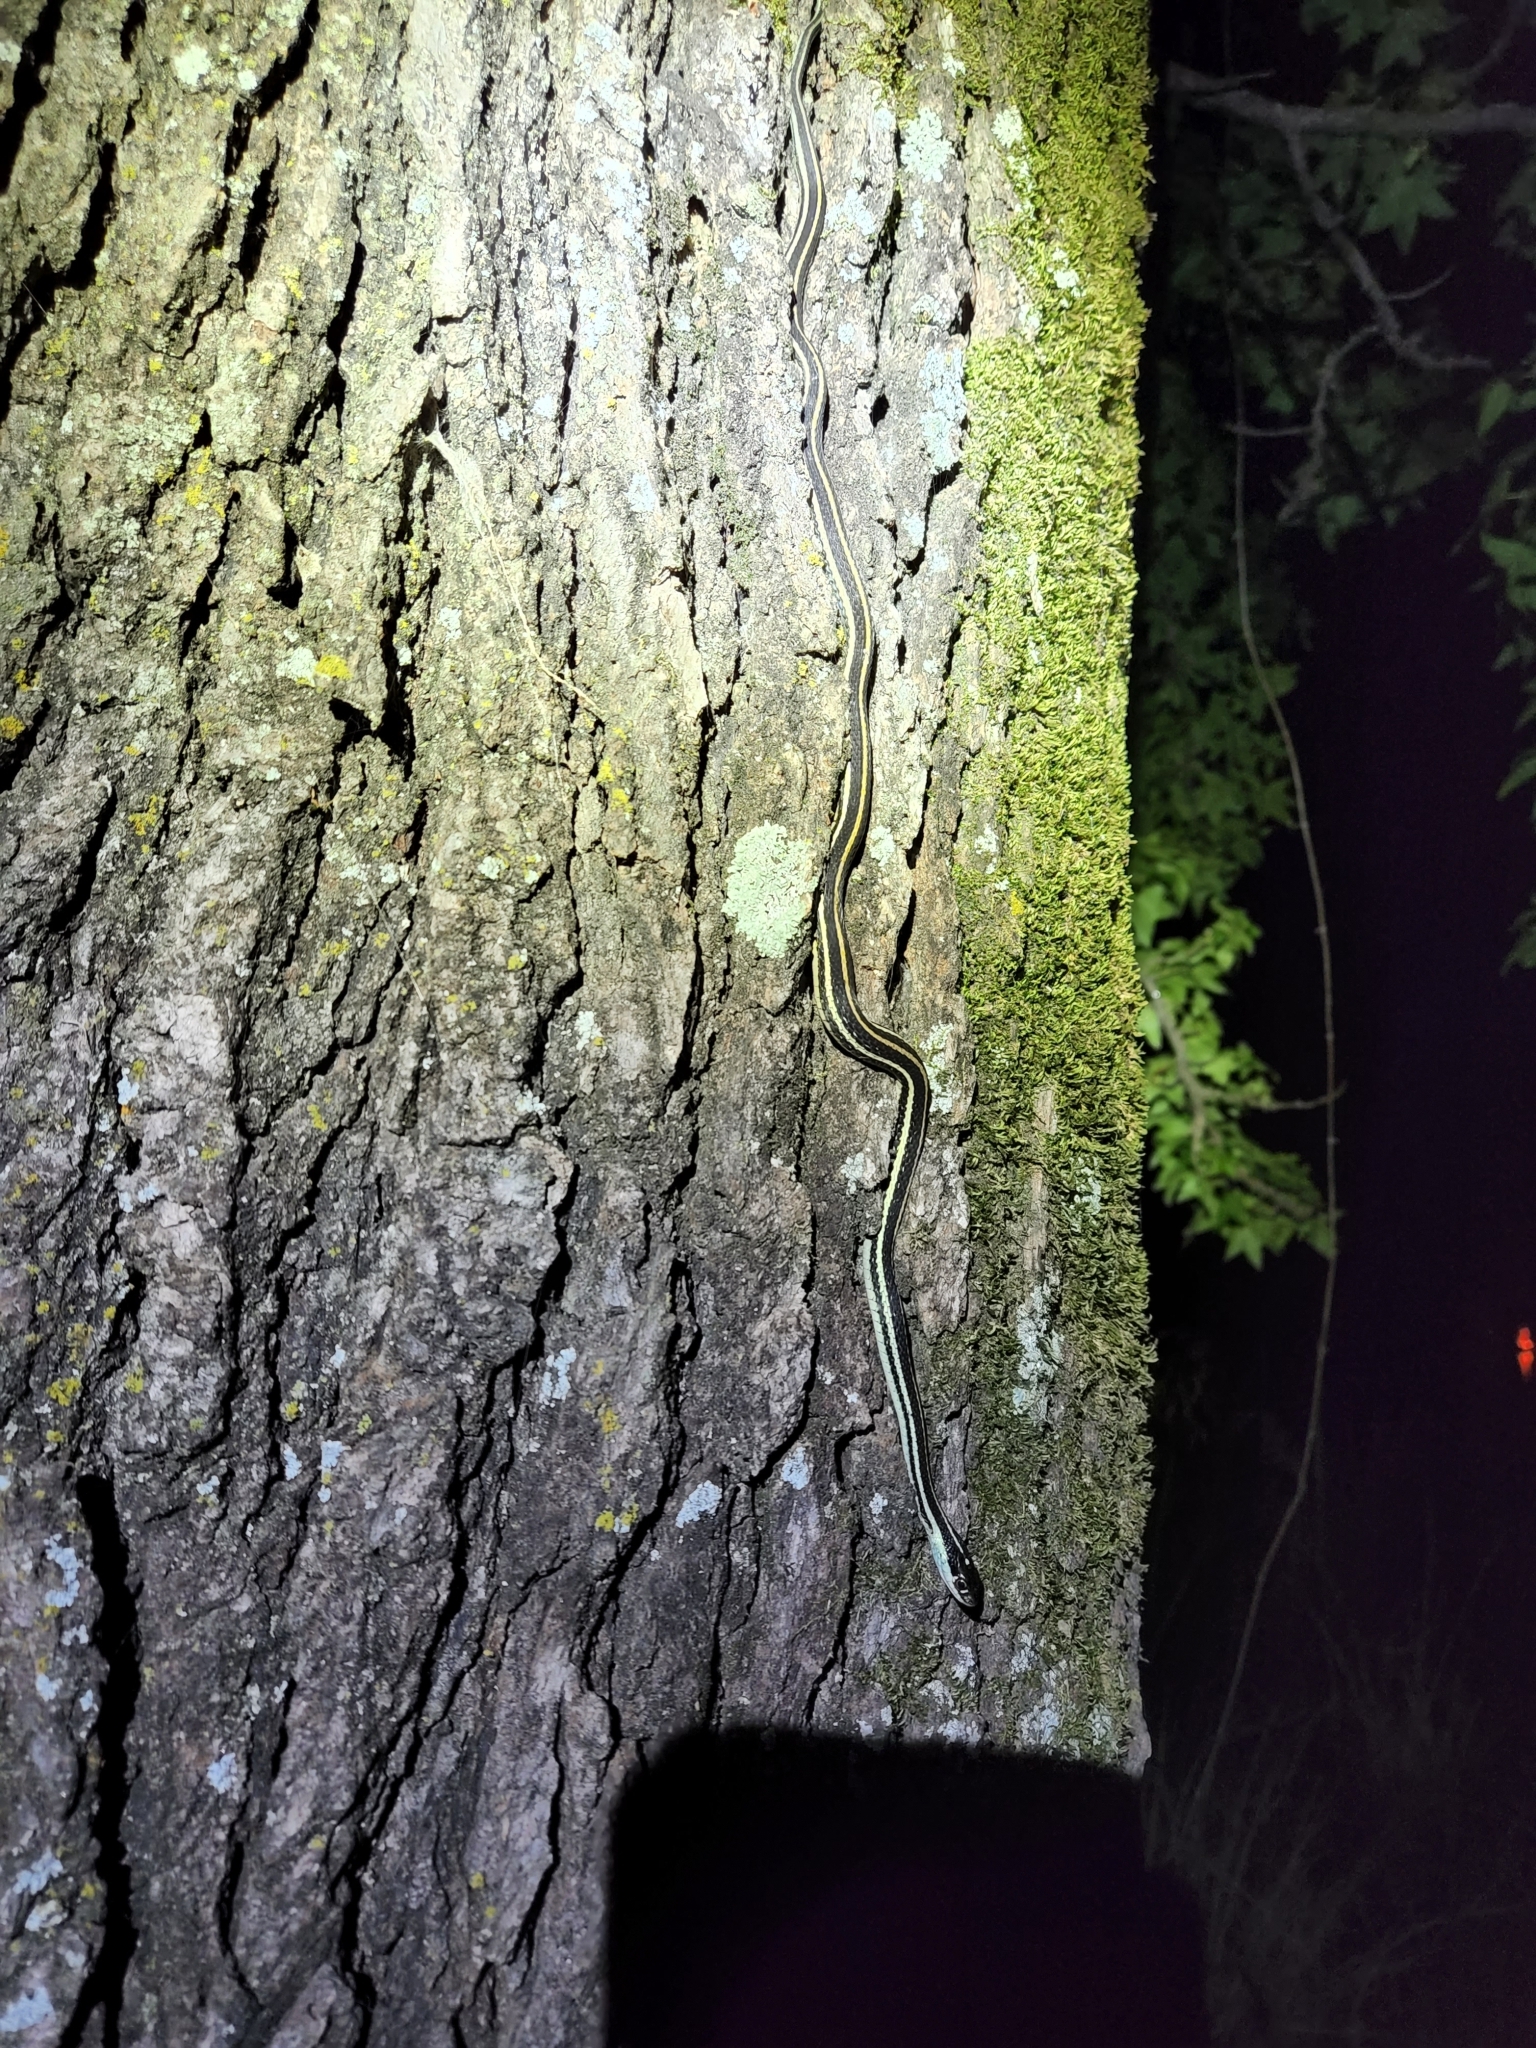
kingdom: Animalia
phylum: Chordata
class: Squamata
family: Colubridae
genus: Thamnophis
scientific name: Thamnophis proximus
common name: Western ribbon snake
